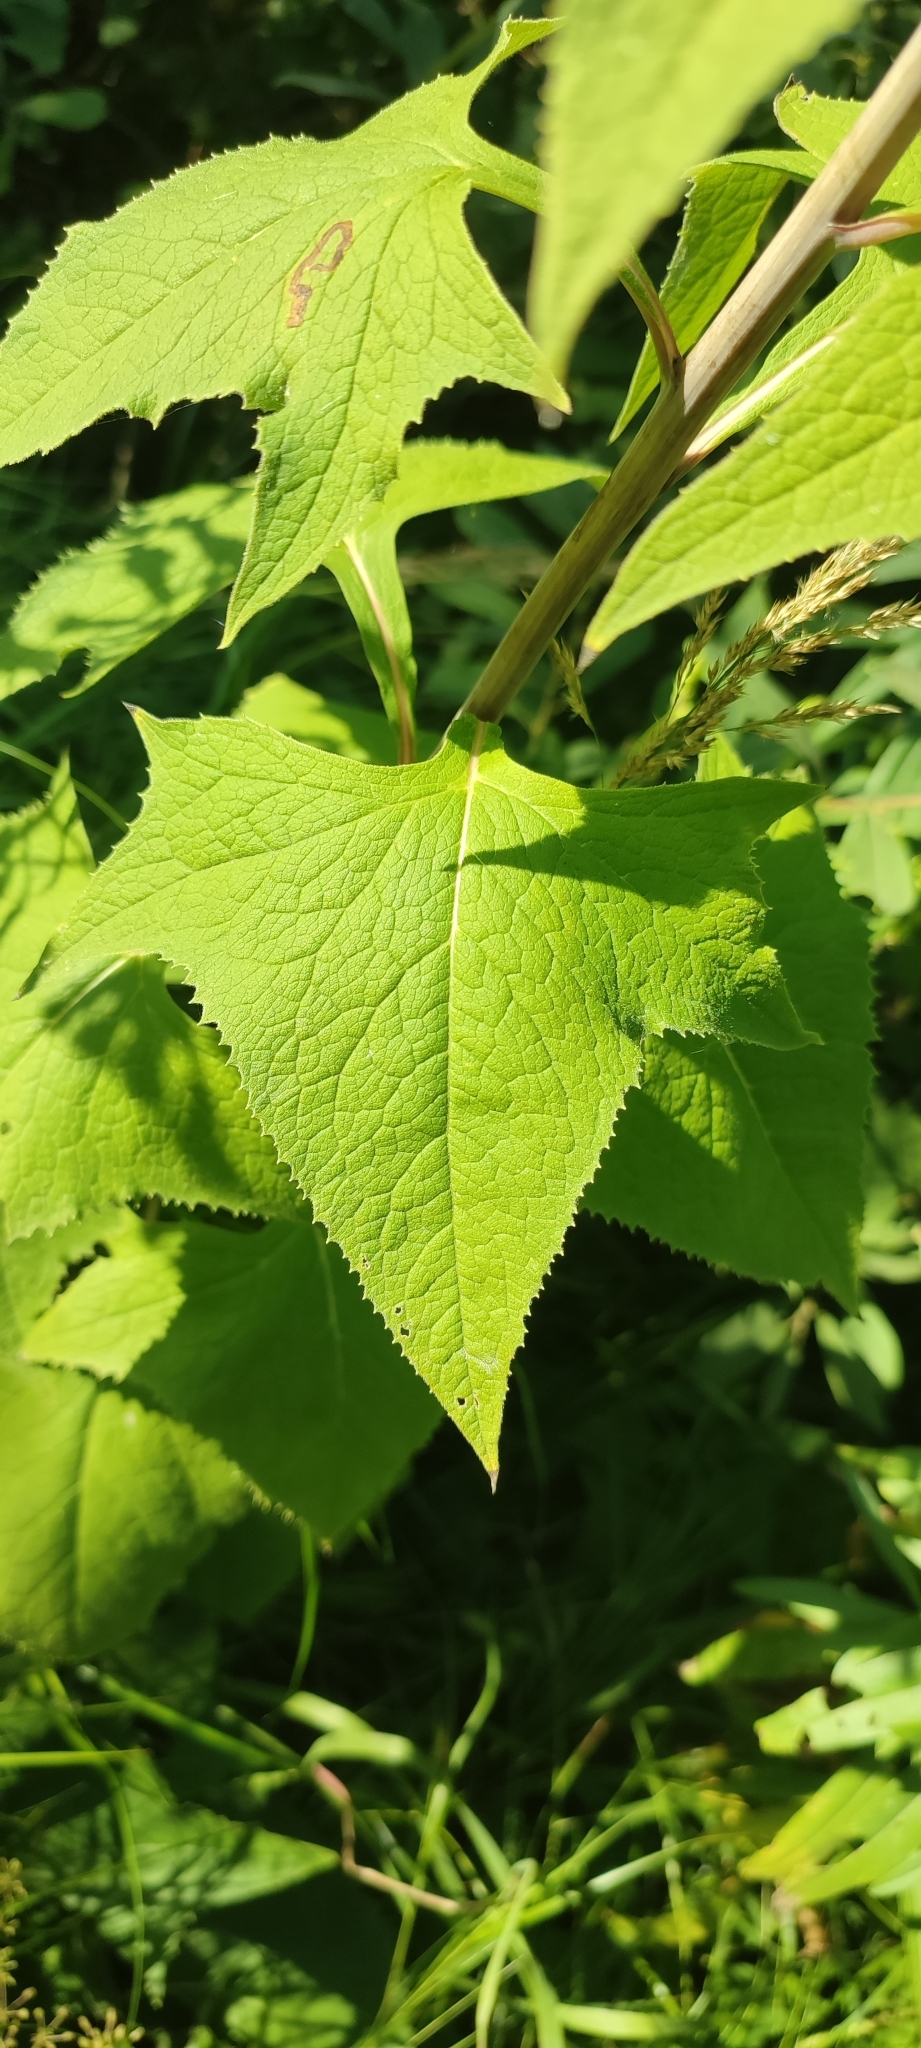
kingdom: Plantae
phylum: Tracheophyta
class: Magnoliopsida
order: Asterales
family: Asteraceae
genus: Parasenecio
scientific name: Parasenecio hastatus
